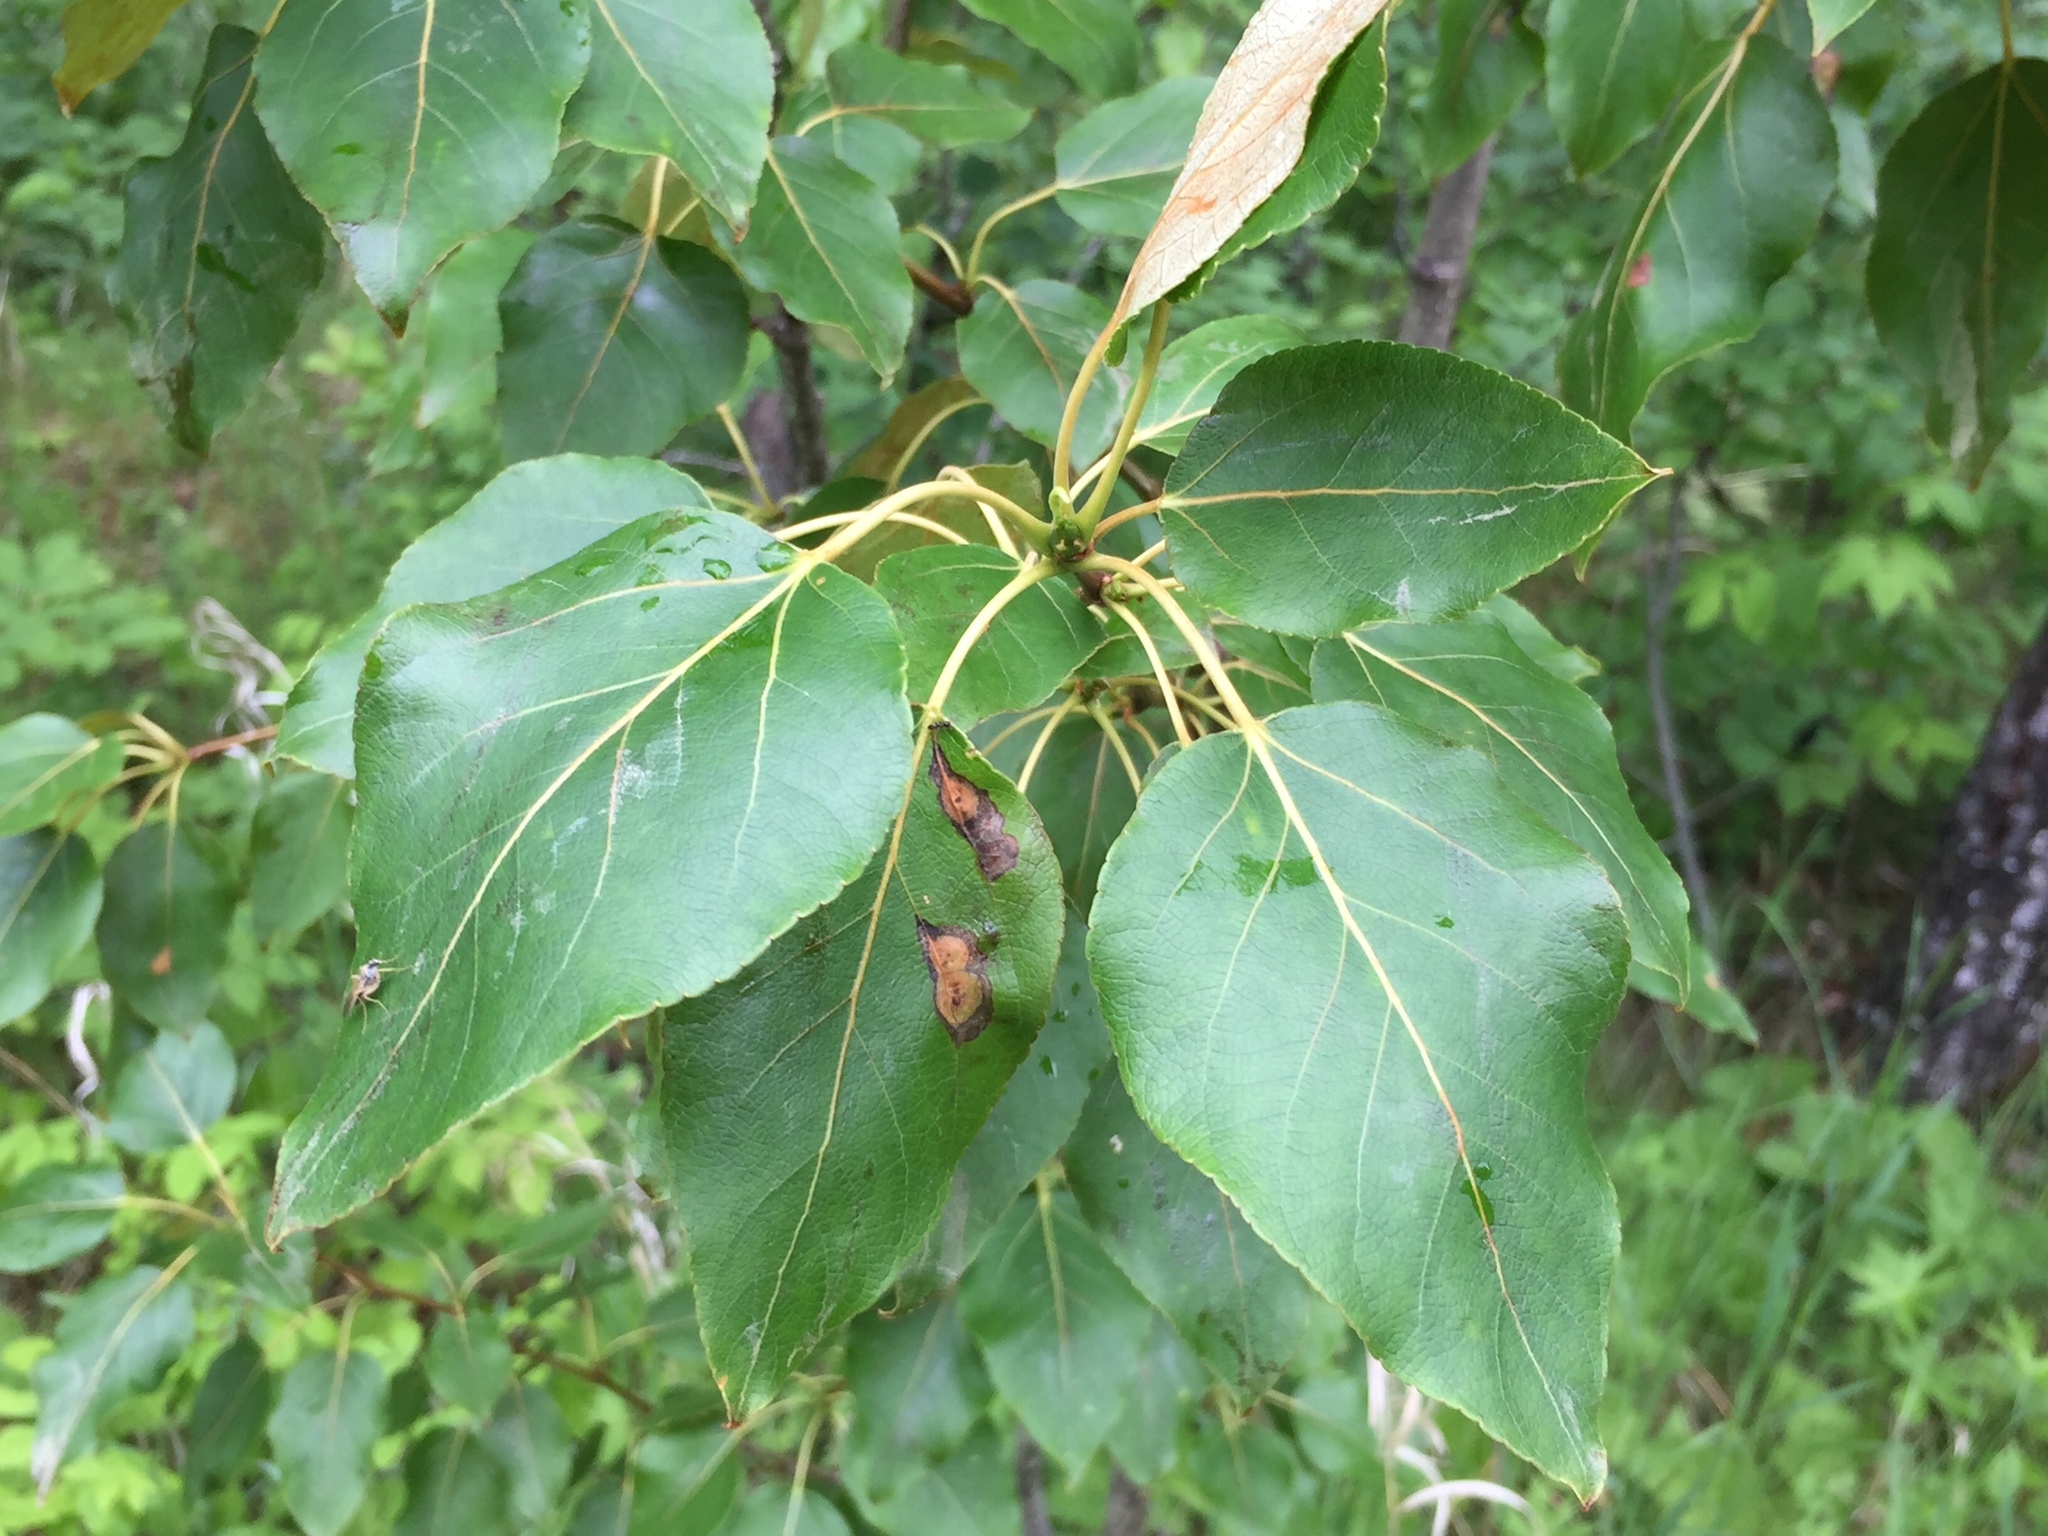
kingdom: Plantae
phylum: Tracheophyta
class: Magnoliopsida
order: Malpighiales
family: Salicaceae
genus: Populus
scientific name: Populus balsamifera
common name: Balsam poplar
